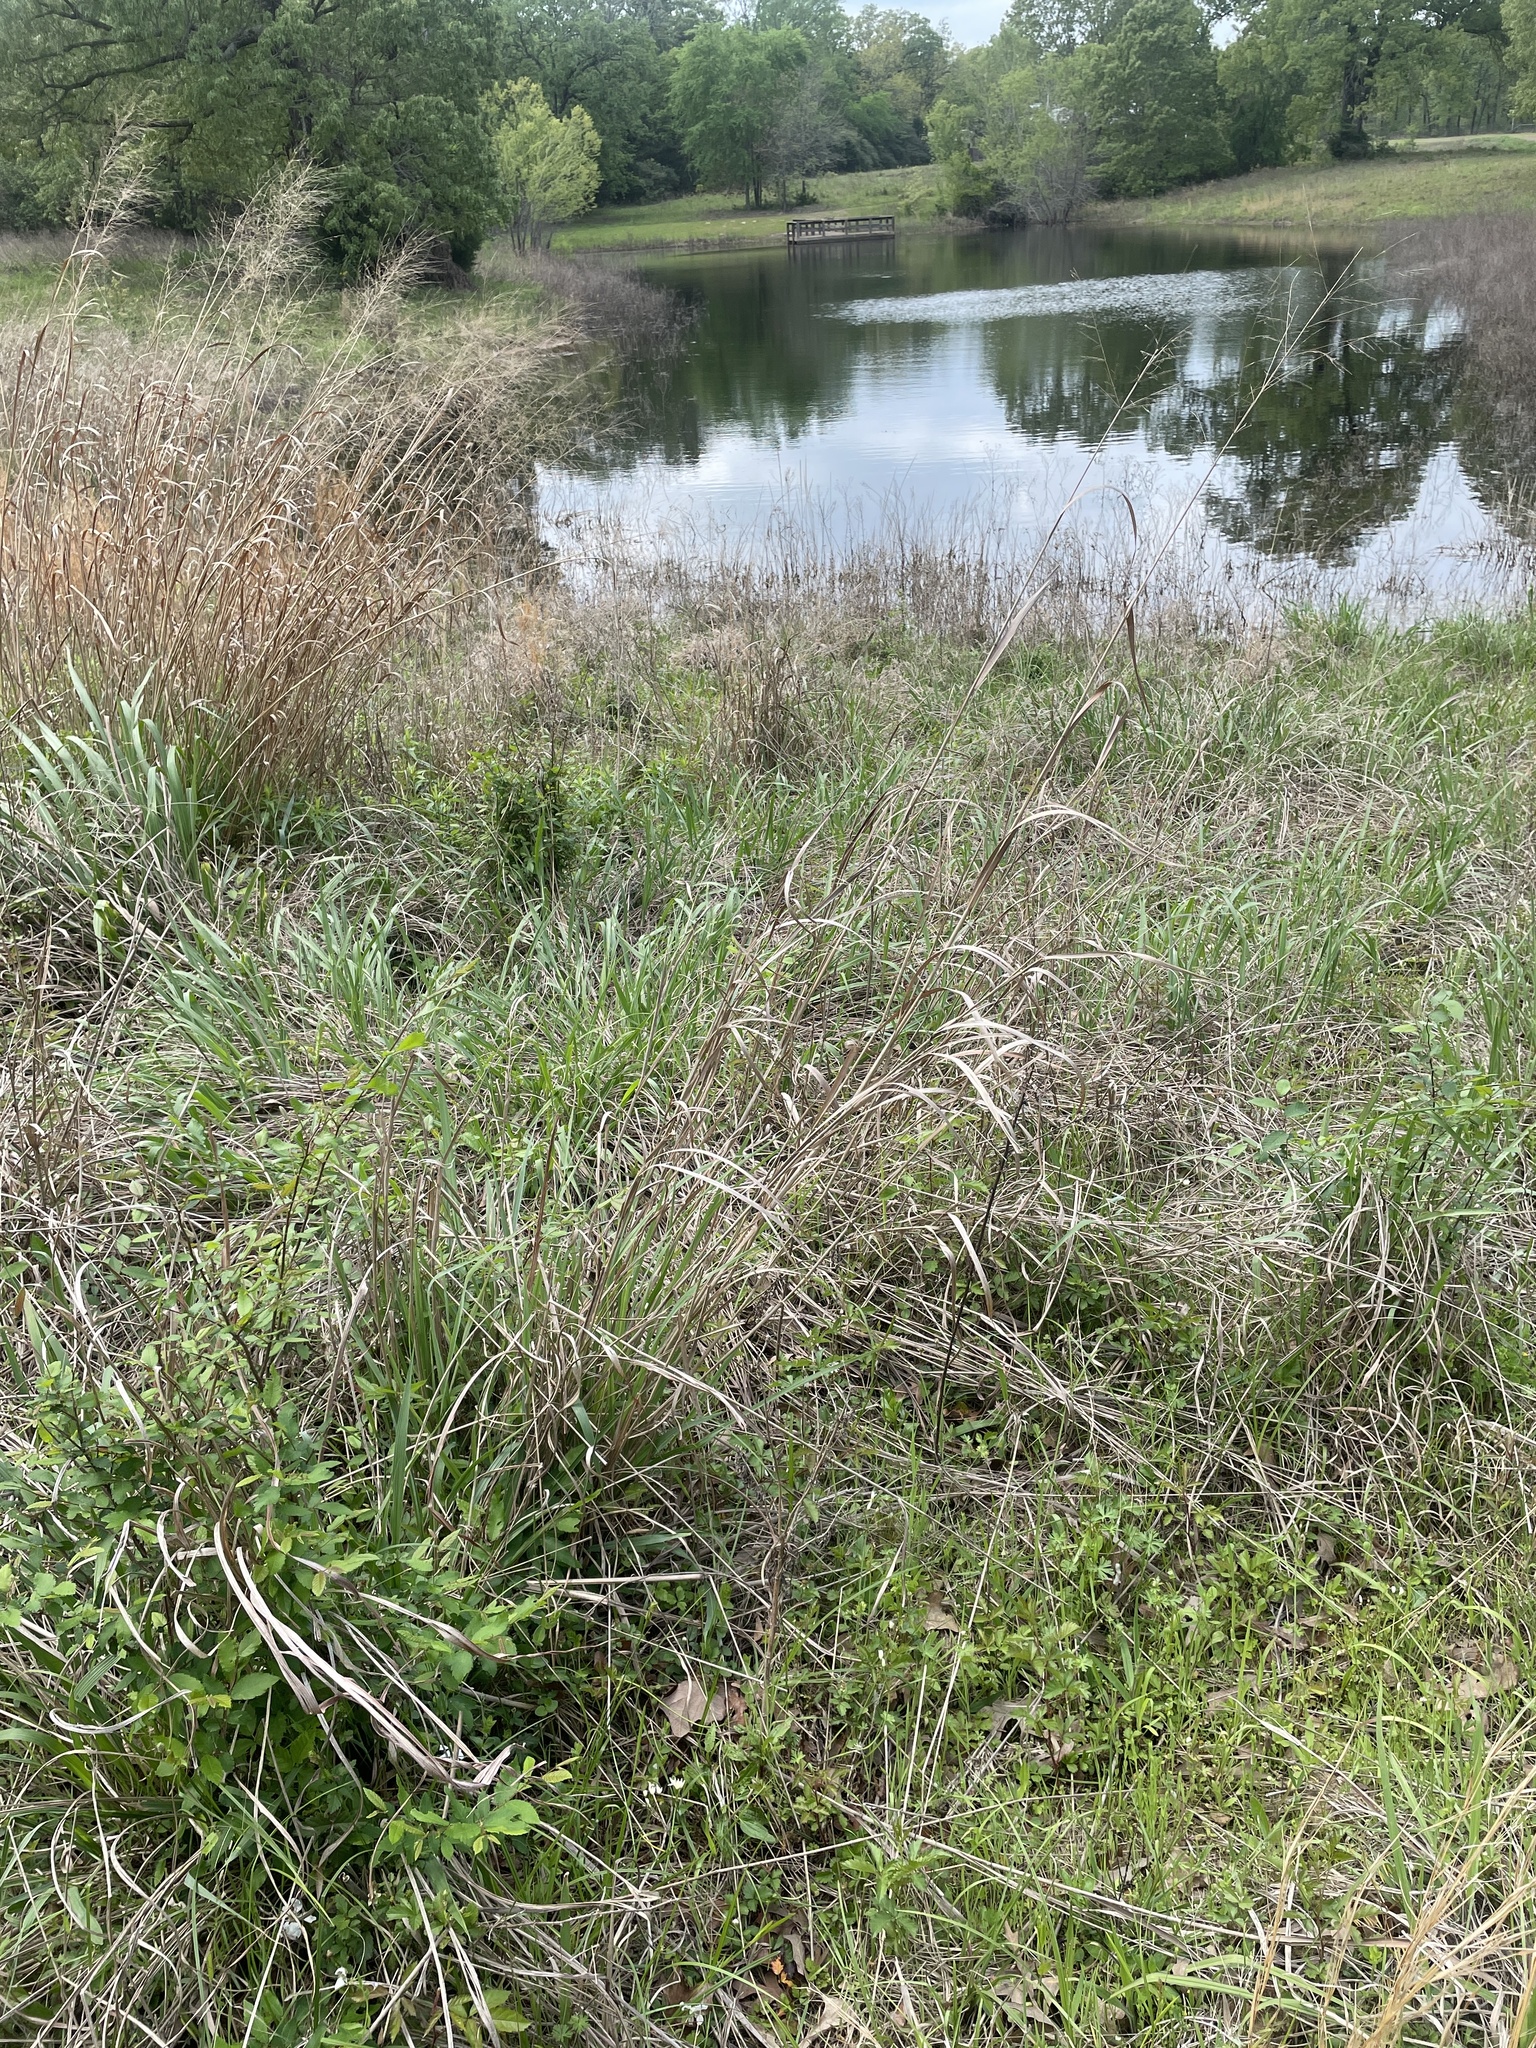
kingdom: Plantae
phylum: Tracheophyta
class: Liliopsida
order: Poales
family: Poaceae
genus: Panicum
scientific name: Panicum virgatum
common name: Switchgrass
